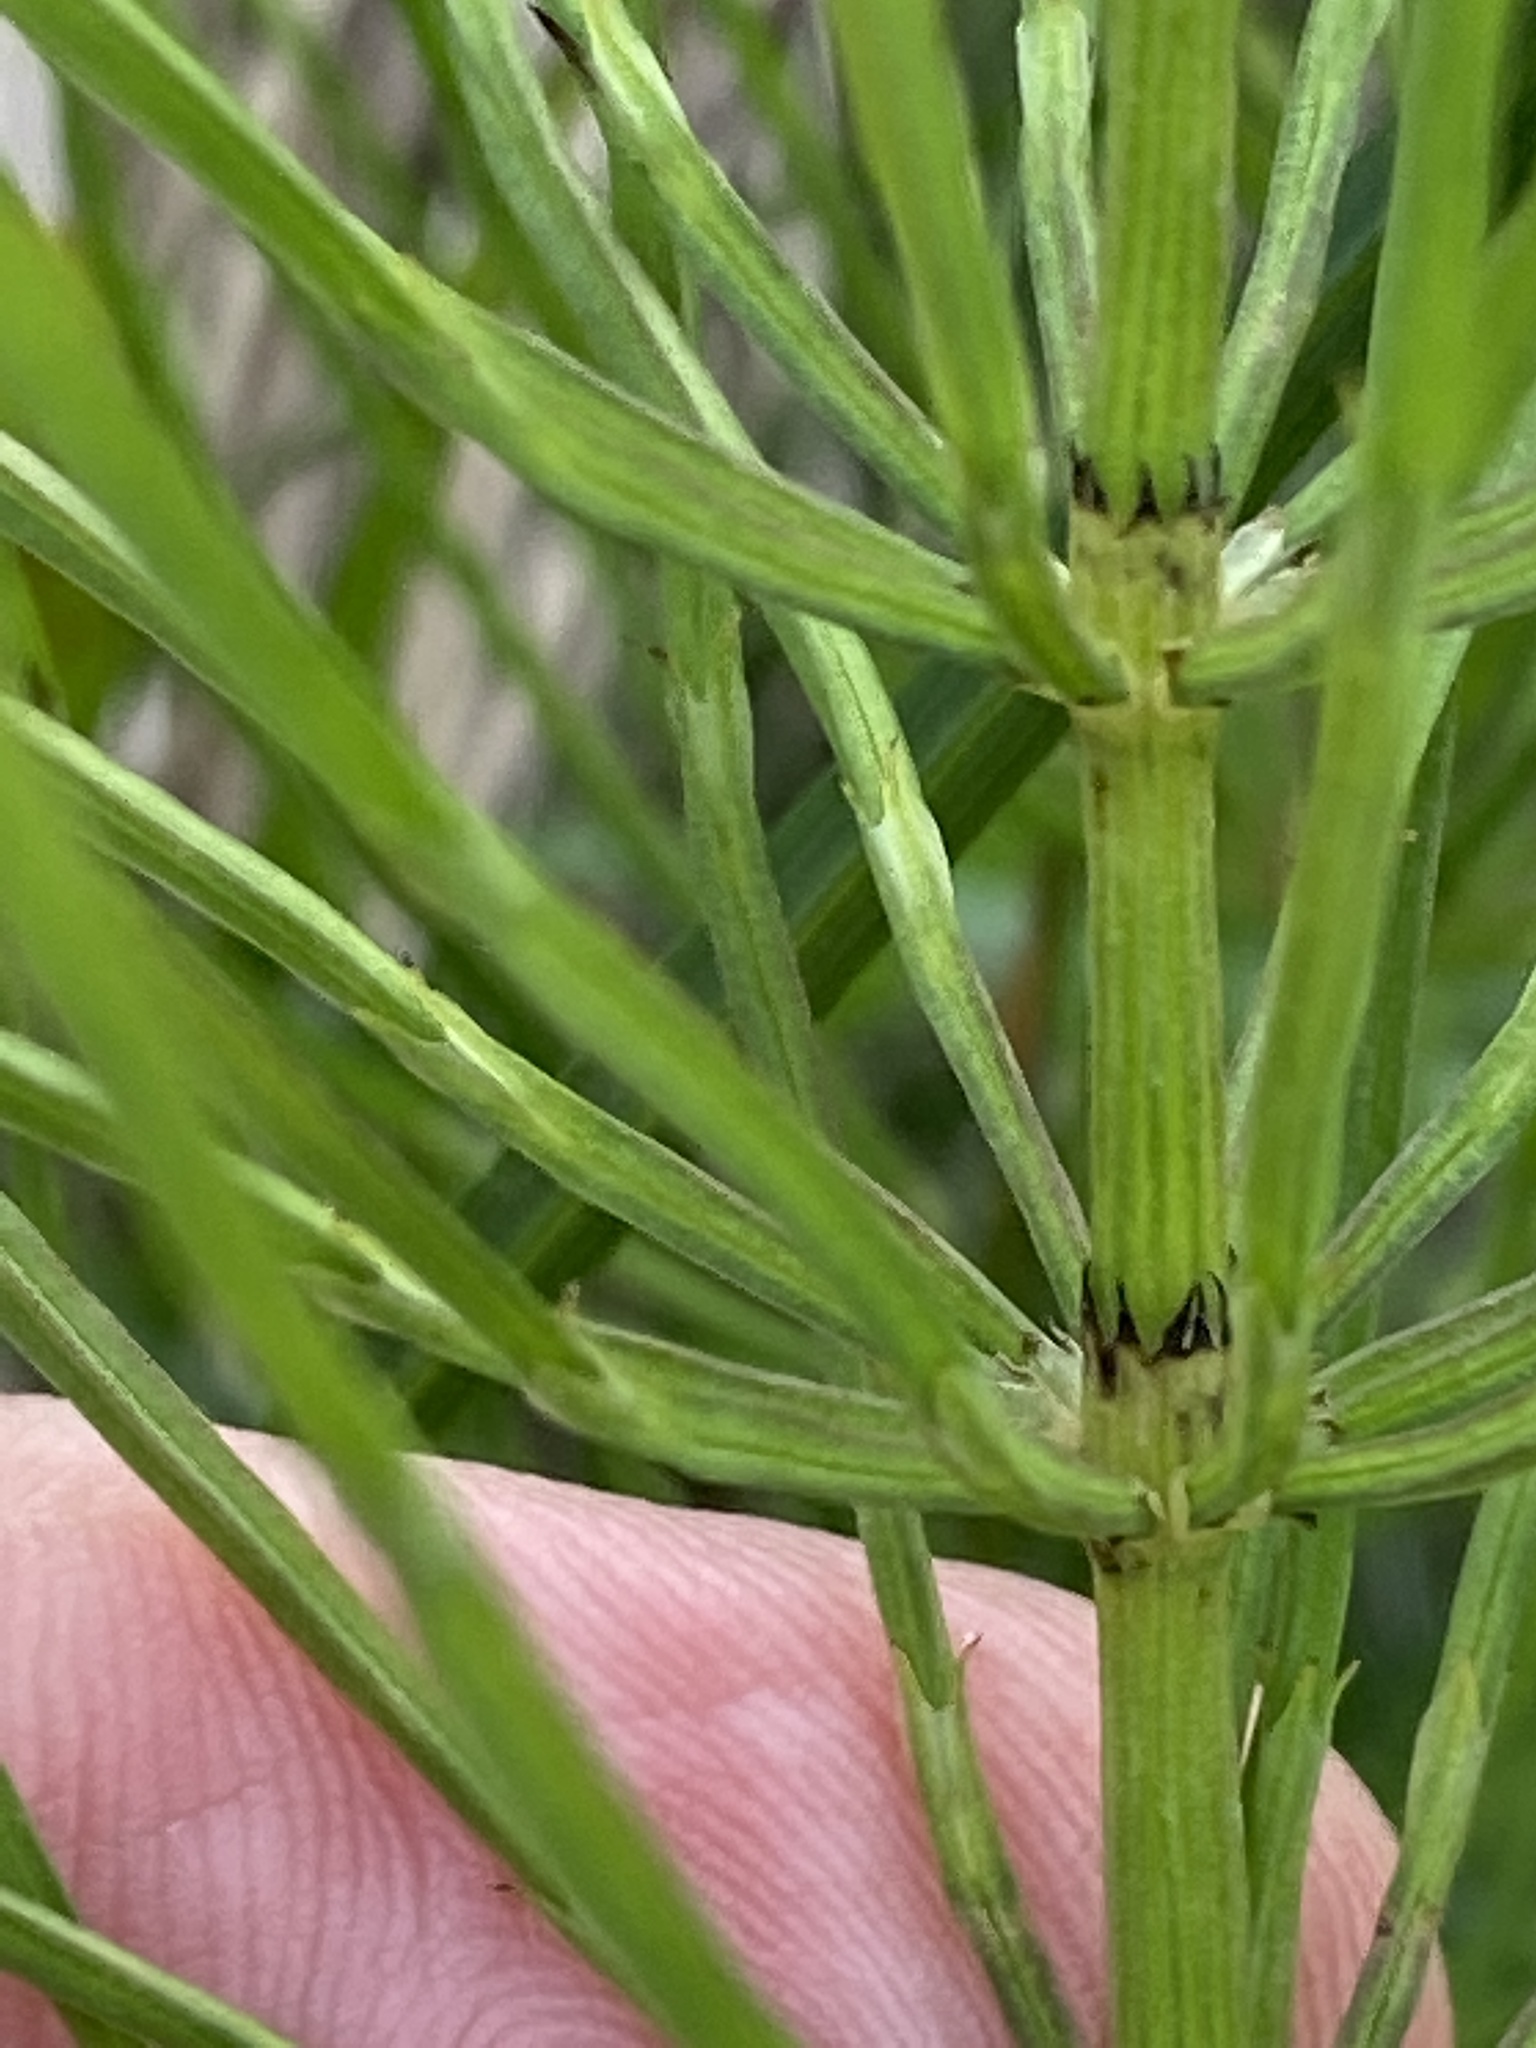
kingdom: Plantae
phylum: Tracheophyta
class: Polypodiopsida
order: Equisetales
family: Equisetaceae
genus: Equisetum
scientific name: Equisetum arvense
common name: Field horsetail
